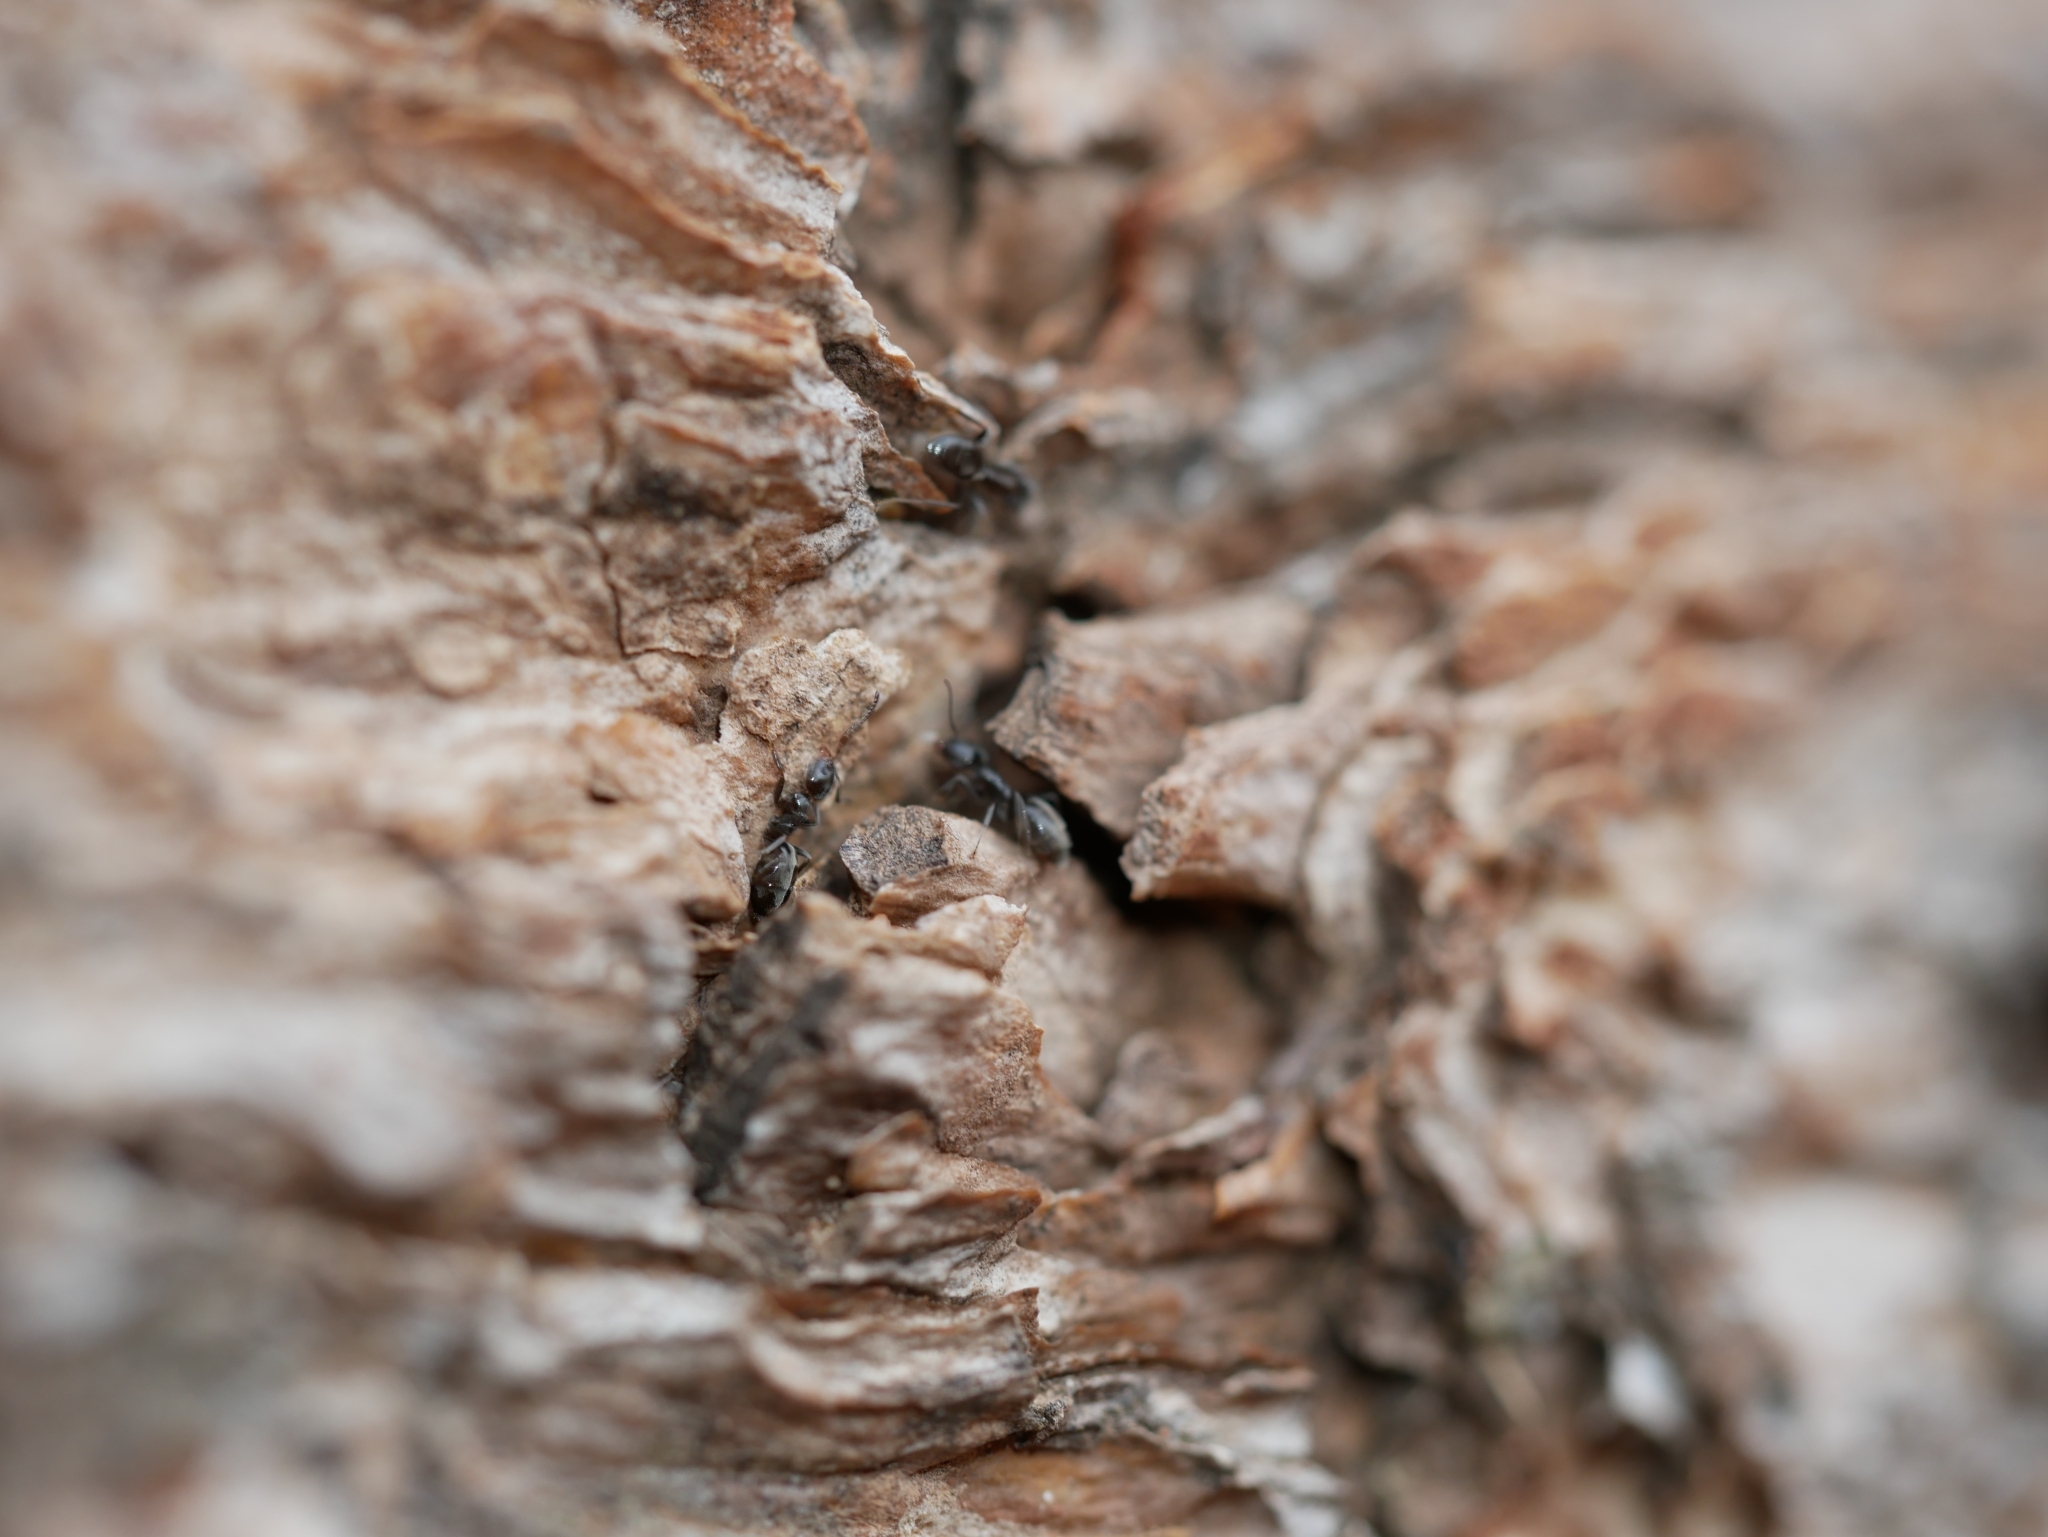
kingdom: Animalia
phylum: Arthropoda
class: Insecta
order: Hymenoptera
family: Formicidae
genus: Liometopum
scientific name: Liometopum luctuosum
